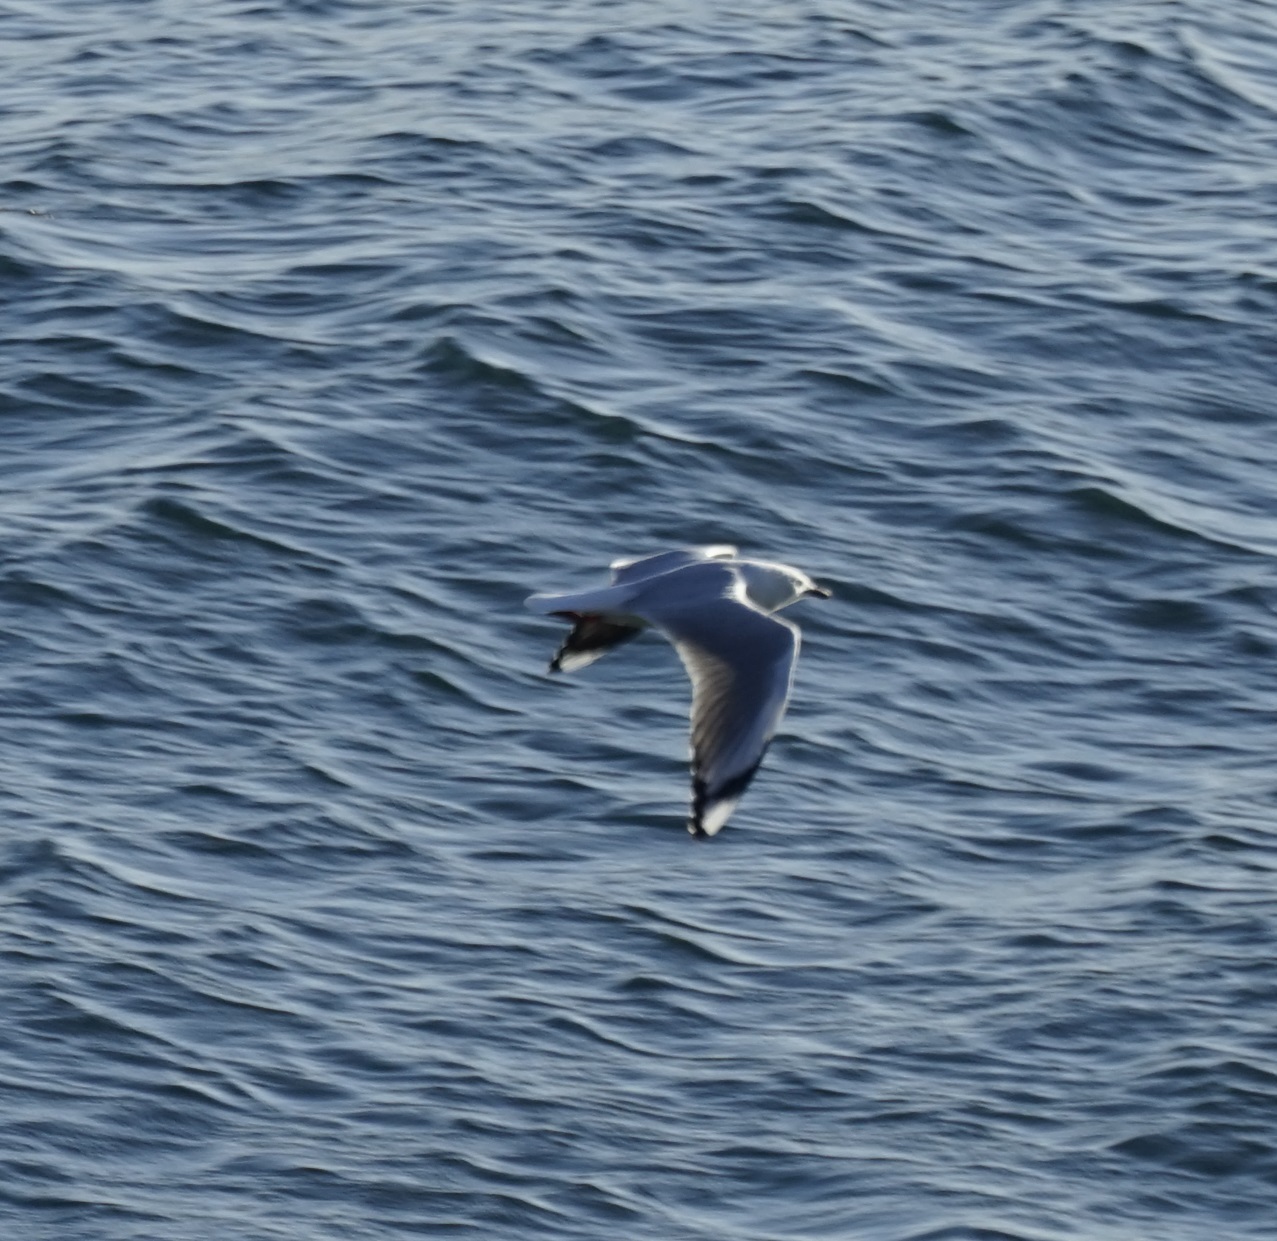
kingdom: Animalia
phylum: Chordata
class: Aves
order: Charadriiformes
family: Laridae
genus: Chroicocephalus
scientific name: Chroicocephalus novaehollandiae
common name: Silver gull
